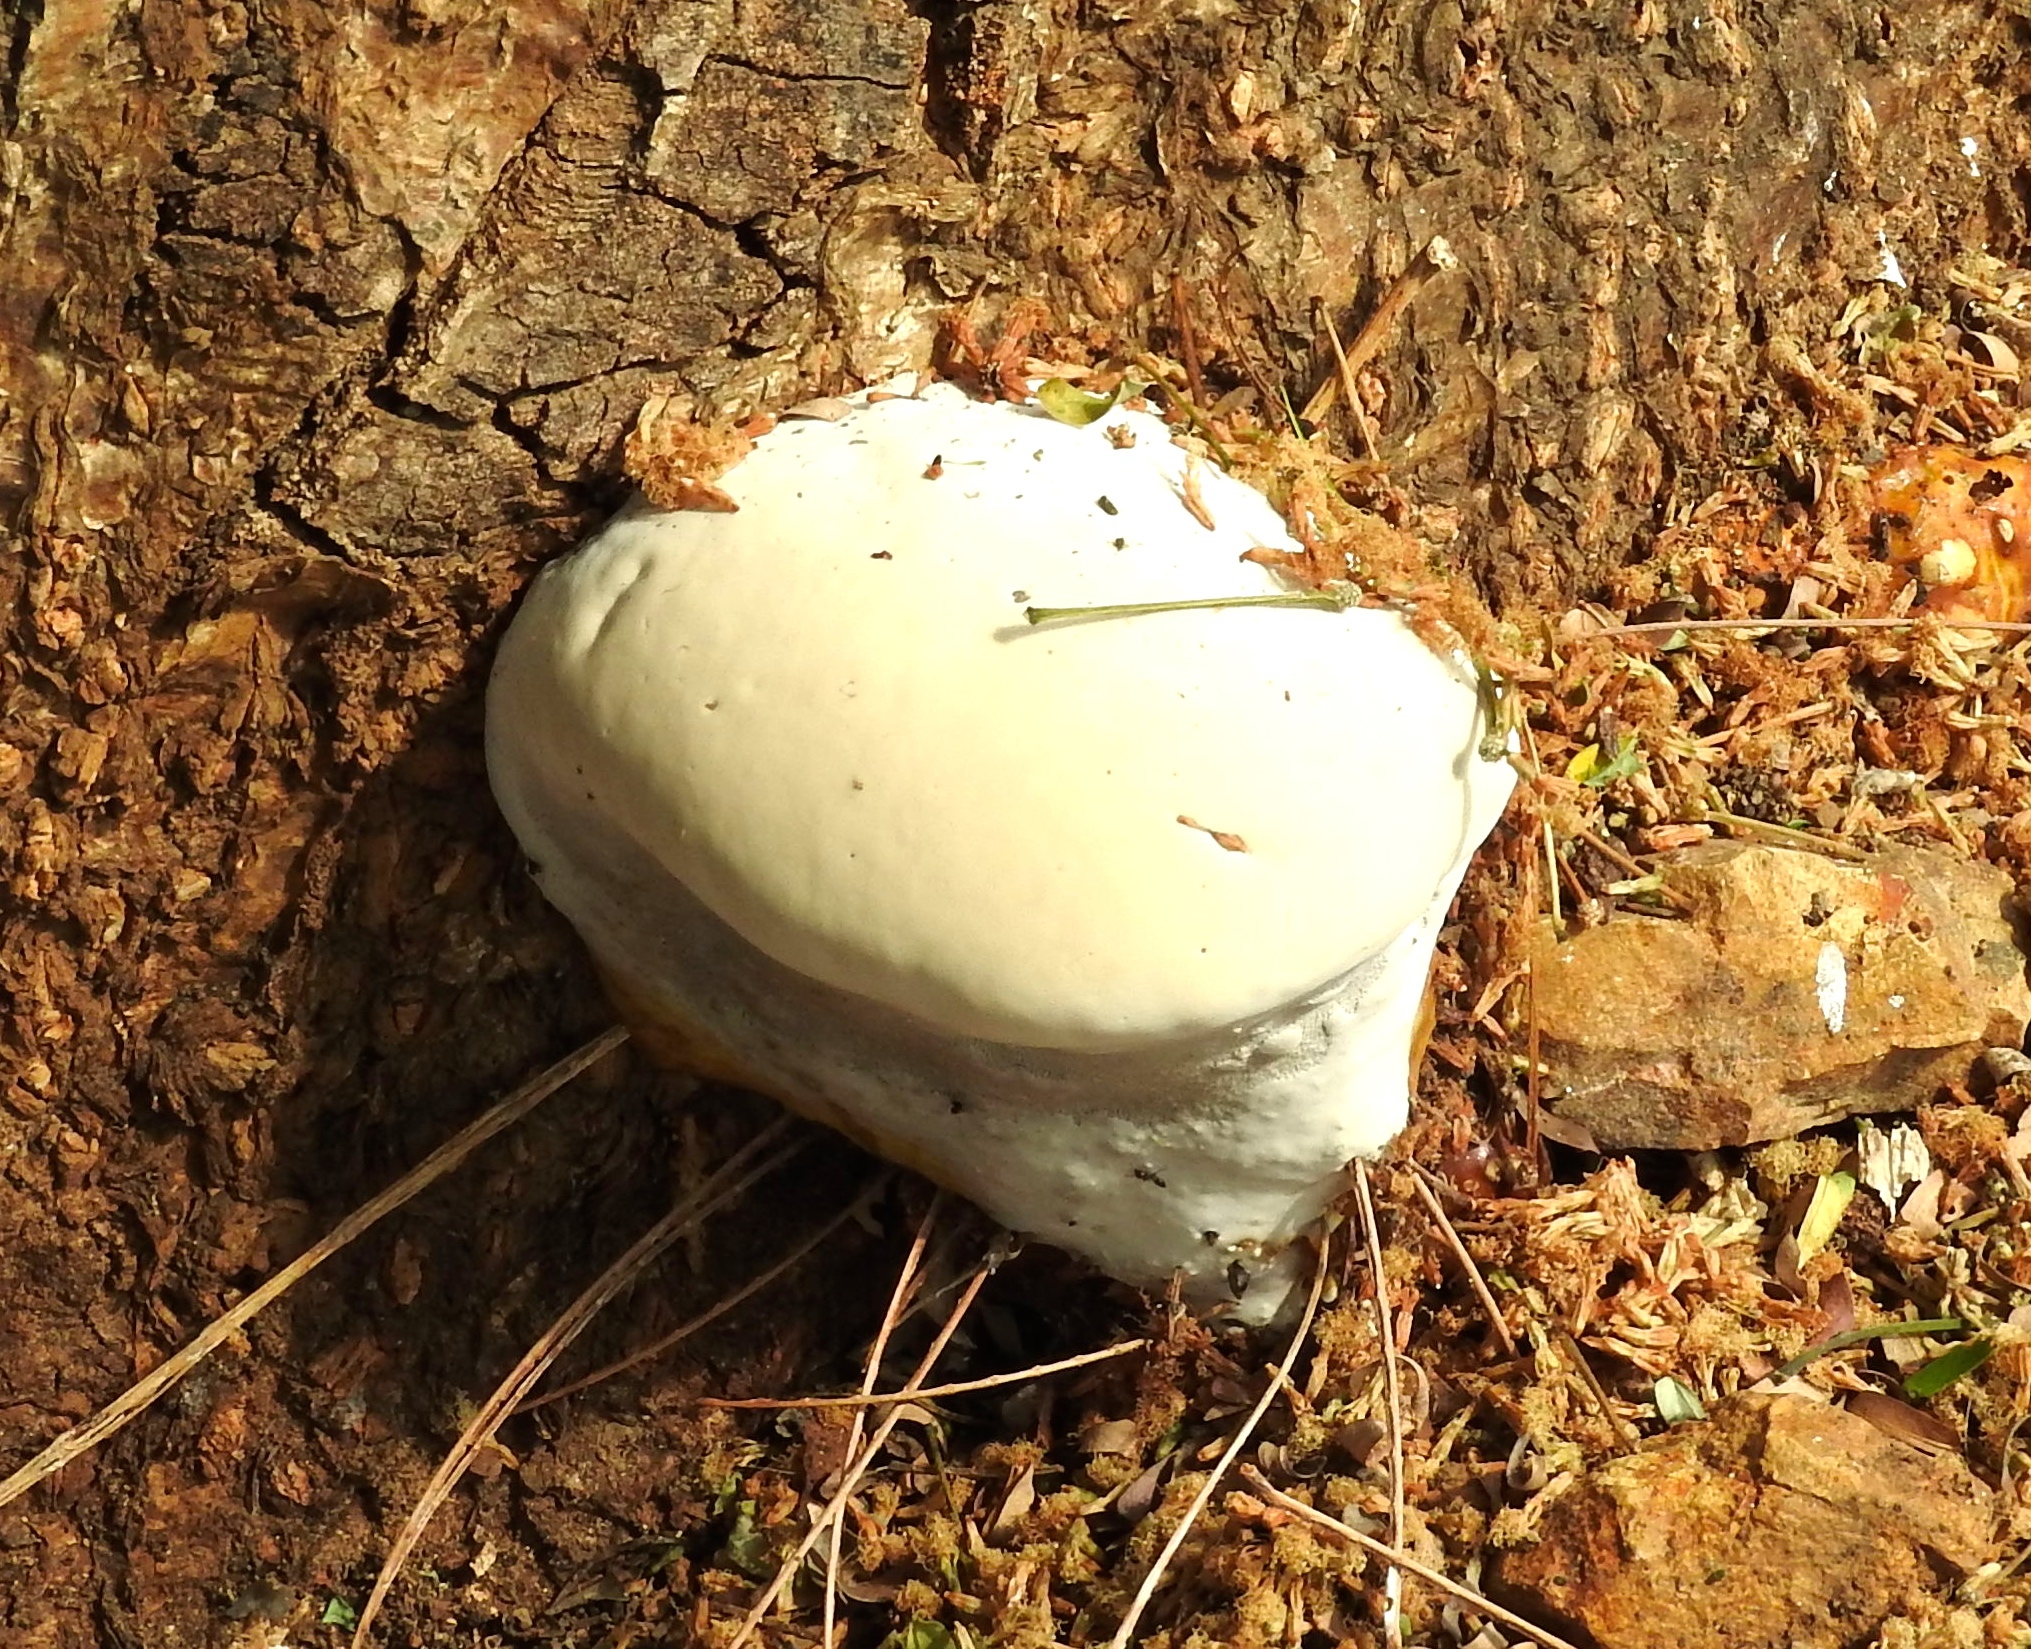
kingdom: Fungi
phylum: Basidiomycota
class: Agaricomycetes
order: Polyporales
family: Polyporaceae
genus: Ganoderma
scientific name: Ganoderma
